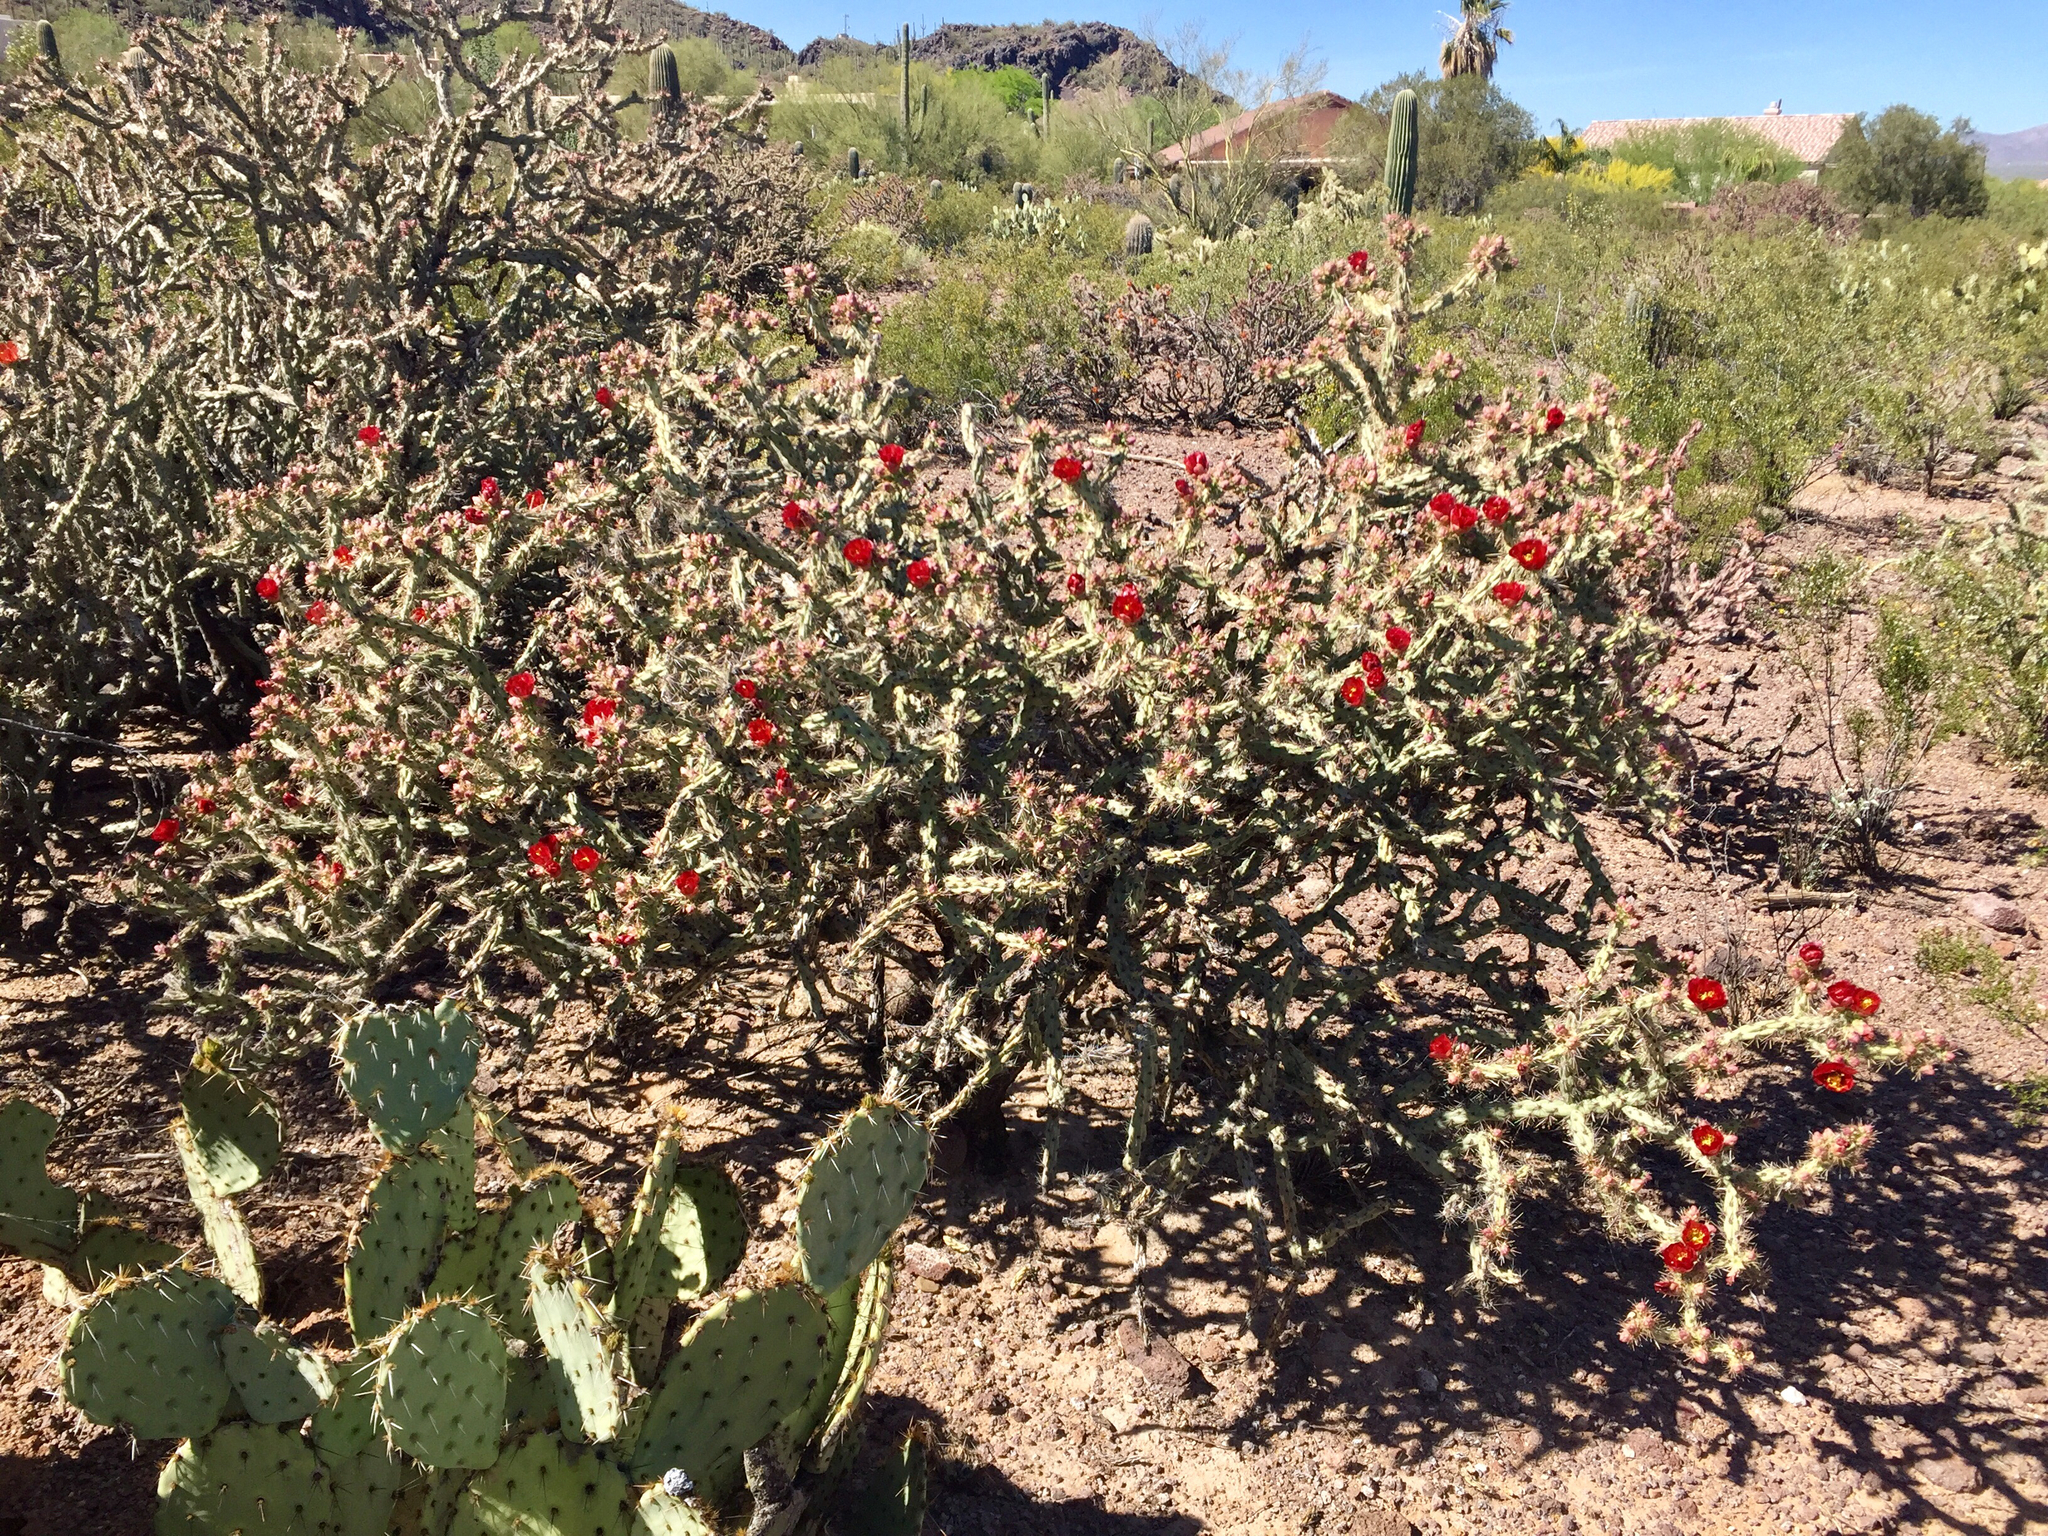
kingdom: Plantae
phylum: Tracheophyta
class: Magnoliopsida
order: Caryophyllales
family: Cactaceae
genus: Cylindropuntia
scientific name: Cylindropuntia thurberi
